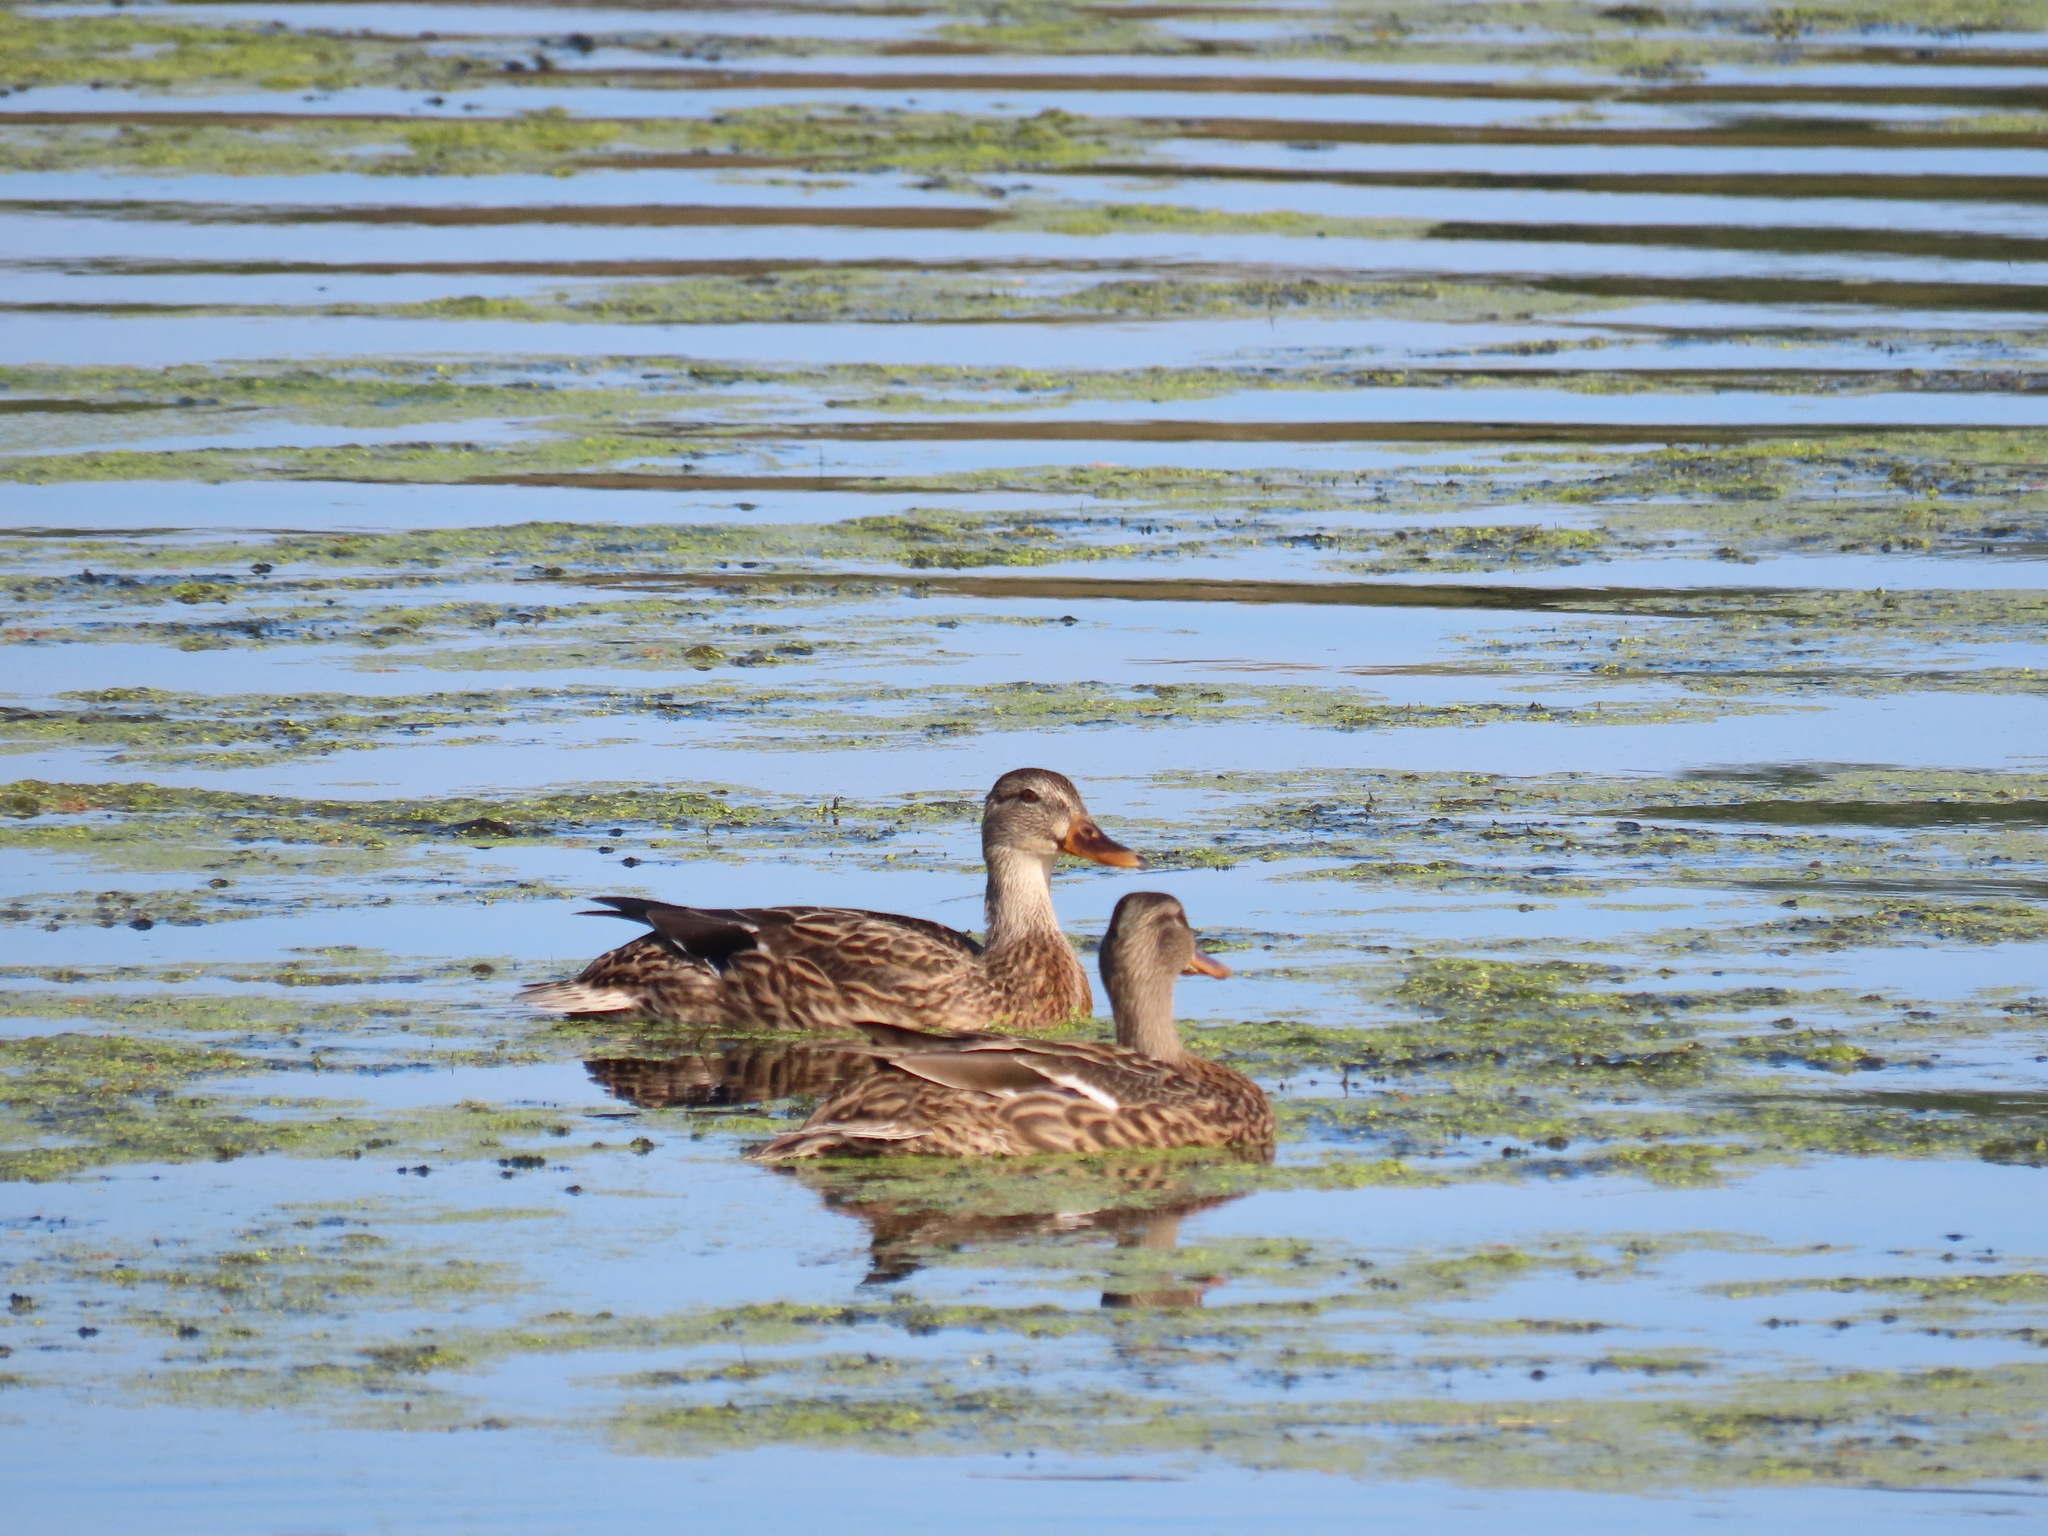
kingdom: Animalia
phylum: Chordata
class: Aves
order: Anseriformes
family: Anatidae
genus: Anas
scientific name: Anas platyrhynchos
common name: Mallard
